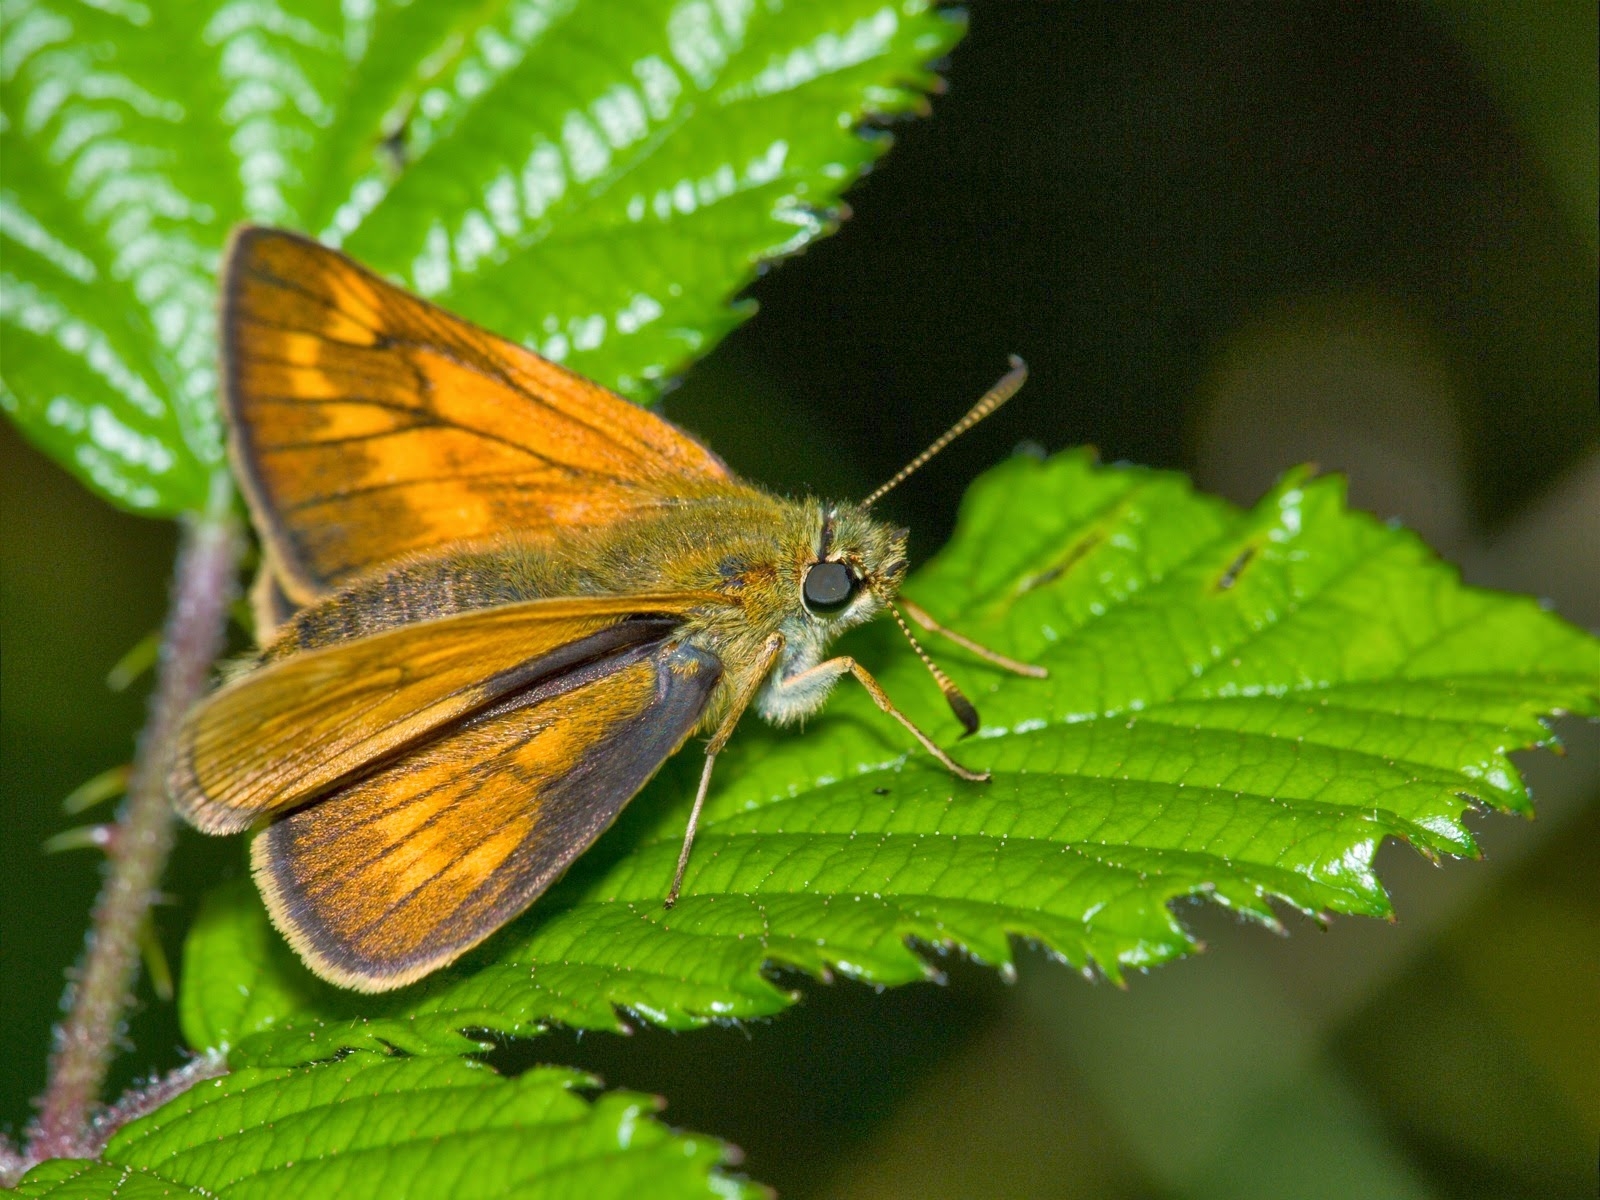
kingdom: Animalia
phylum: Arthropoda
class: Insecta
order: Lepidoptera
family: Hesperiidae
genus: Ochlodes
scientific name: Ochlodes venata
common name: Large skipper
